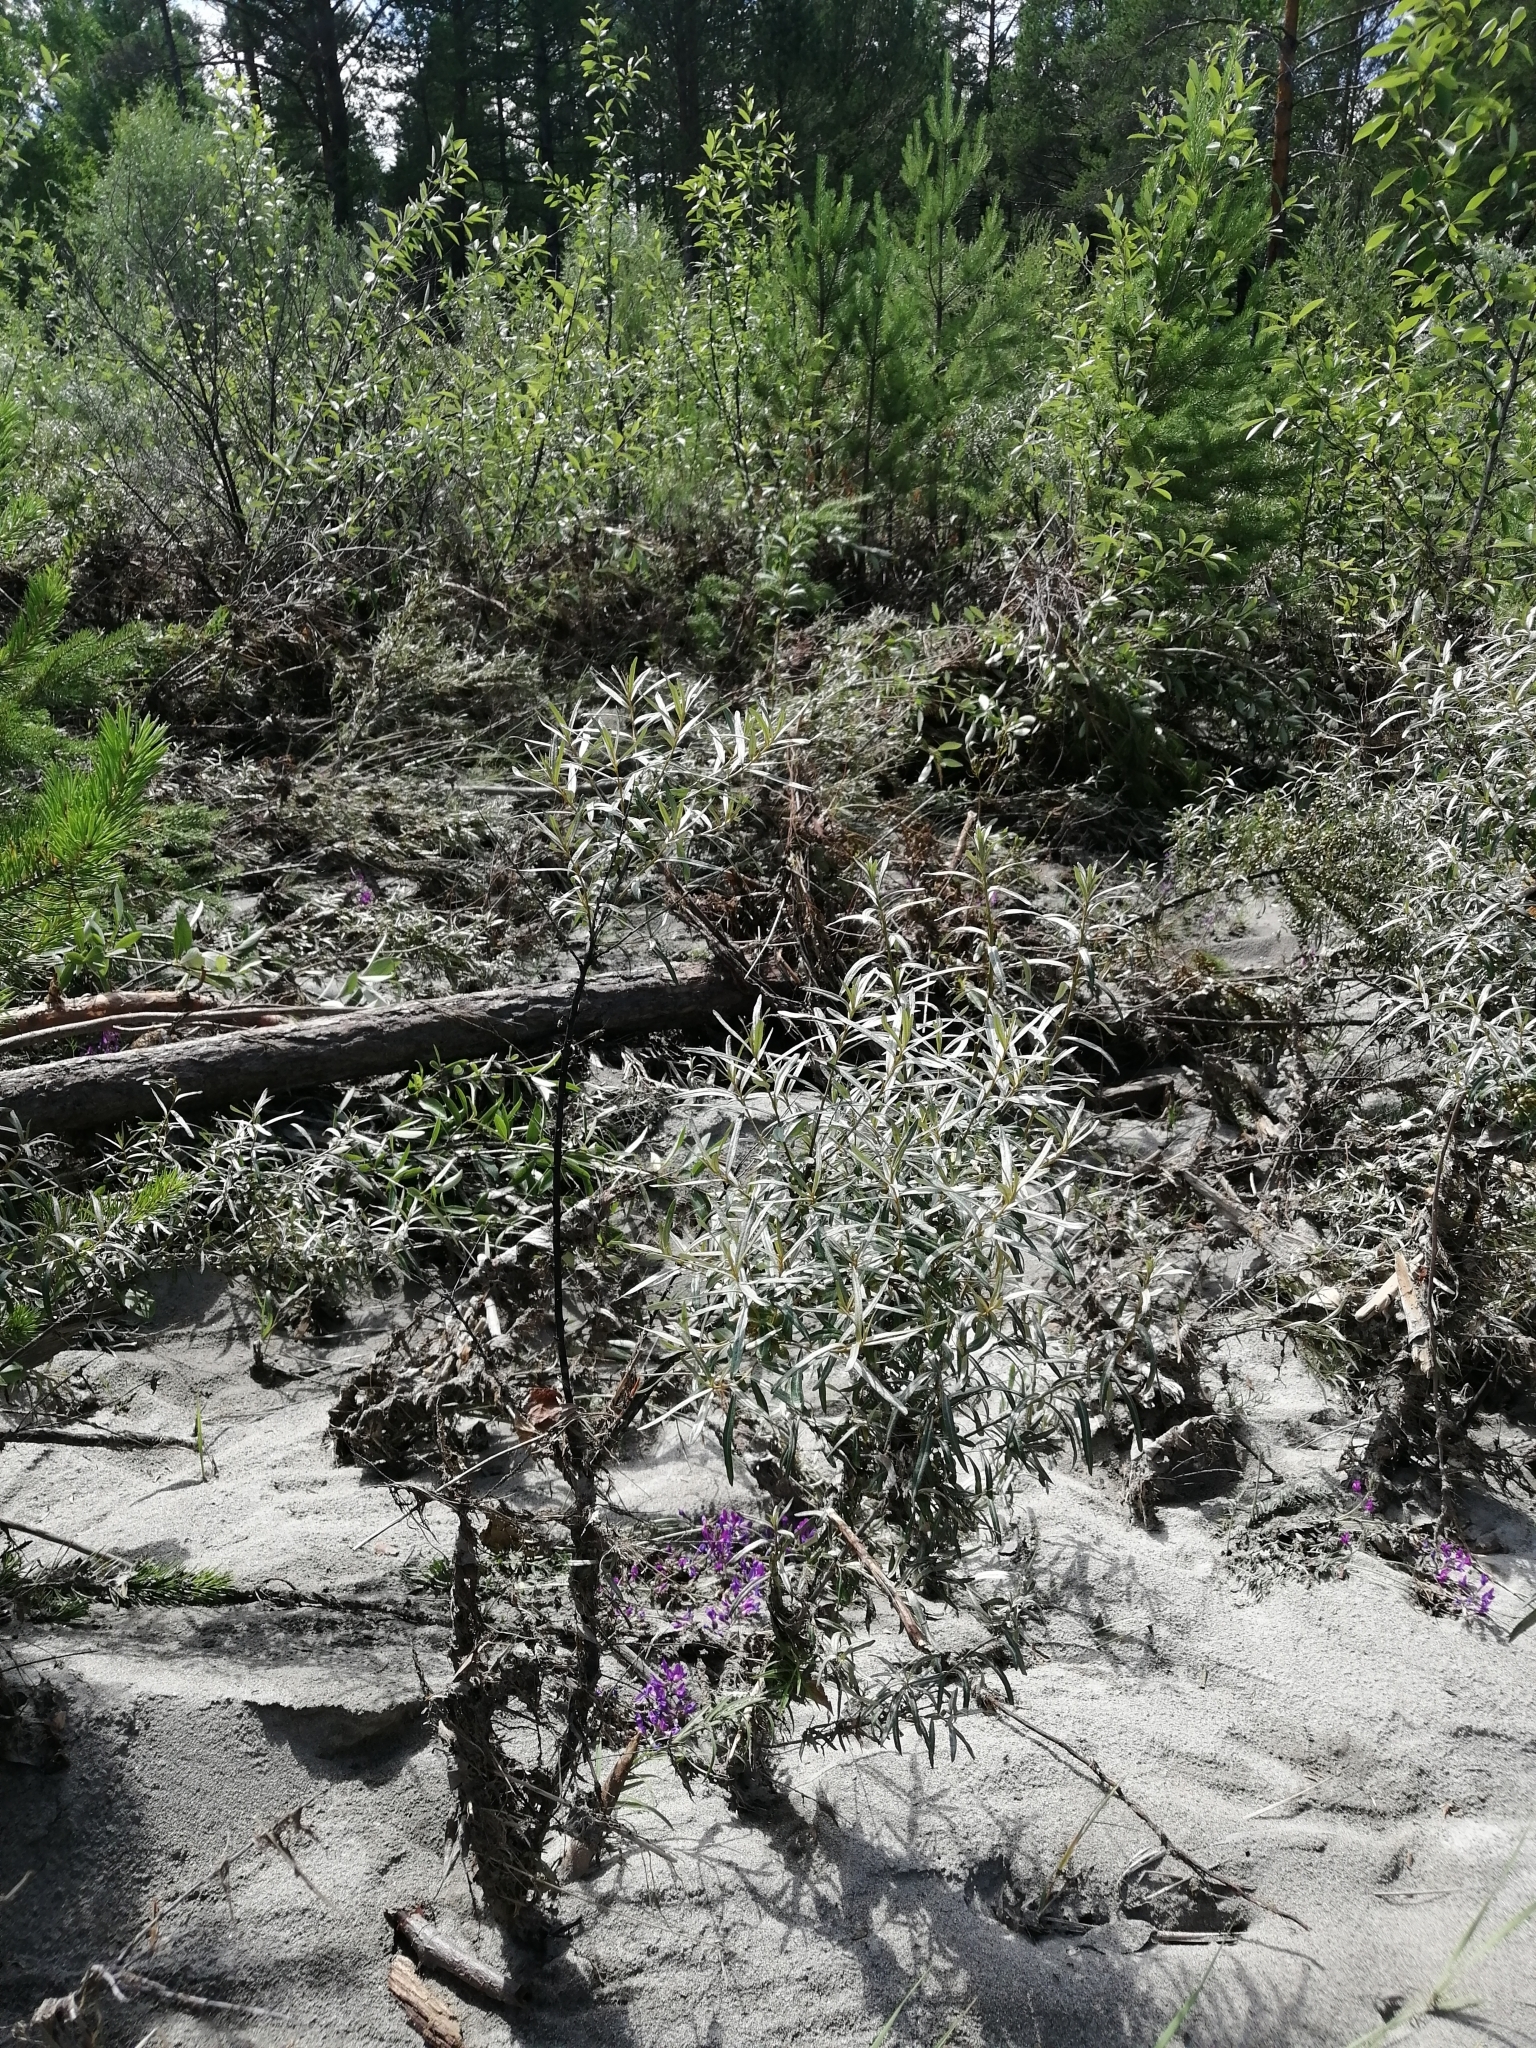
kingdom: Plantae
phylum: Tracheophyta
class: Magnoliopsida
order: Rosales
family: Elaeagnaceae
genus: Hippophae
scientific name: Hippophae rhamnoides
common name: Sea-buckthorn
